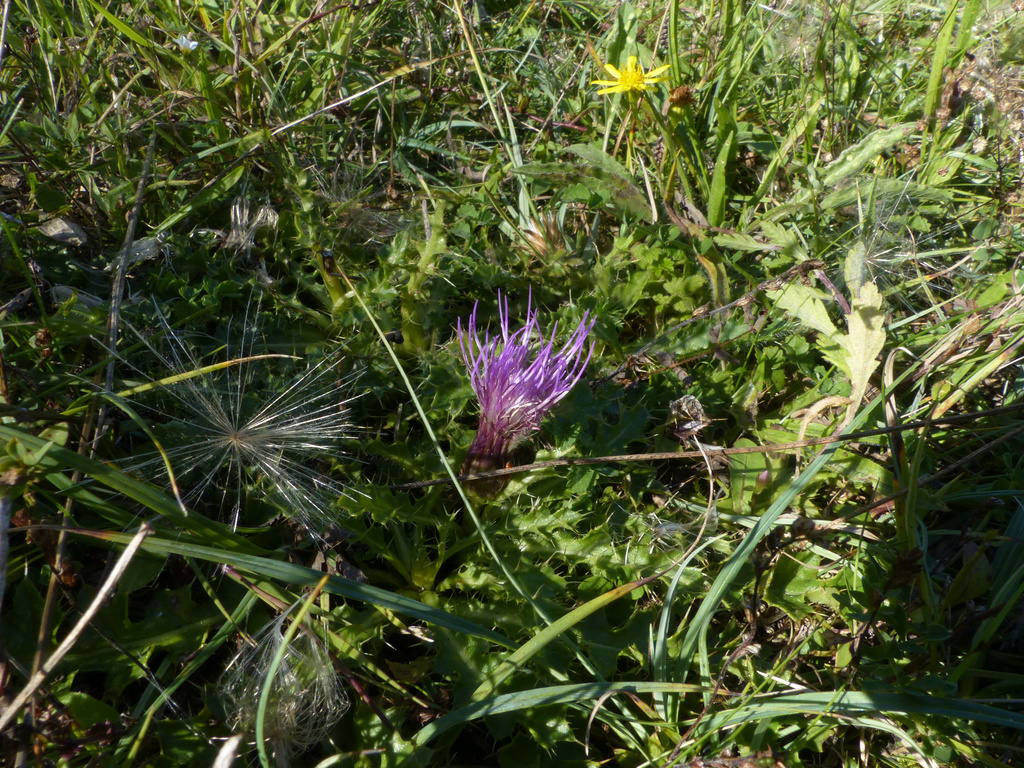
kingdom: Plantae
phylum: Tracheophyta
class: Magnoliopsida
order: Asterales
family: Asteraceae
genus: Cirsium
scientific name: Cirsium acaulon
